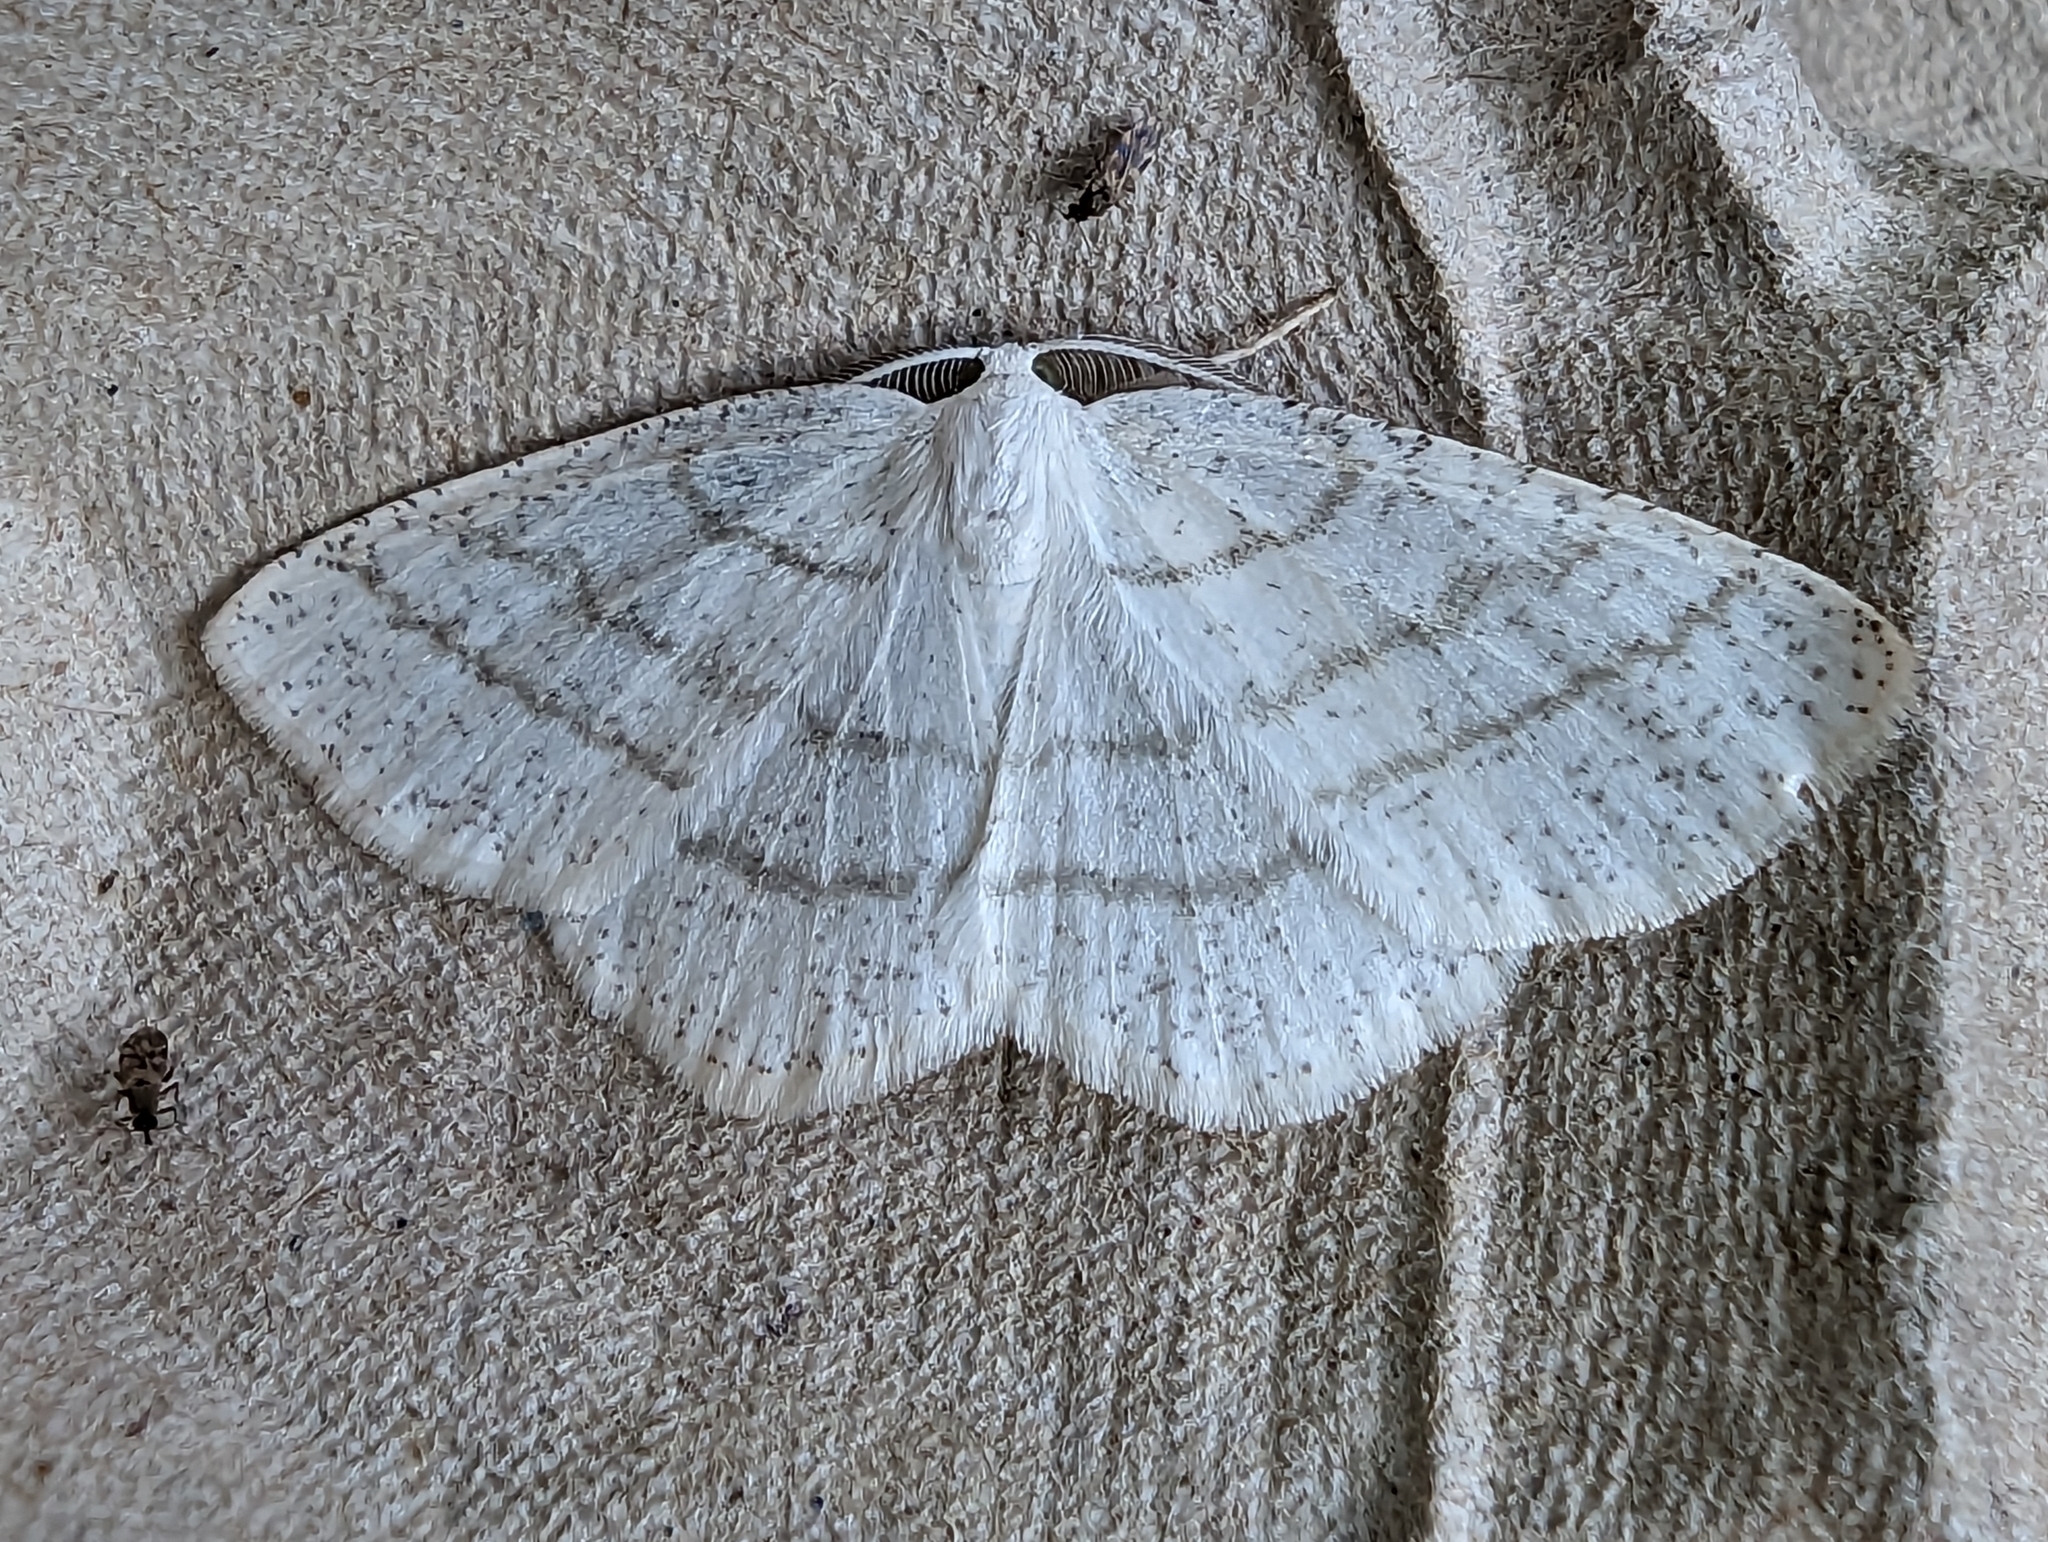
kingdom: Animalia
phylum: Arthropoda
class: Insecta
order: Lepidoptera
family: Geometridae
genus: Cabera
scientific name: Cabera pusaria
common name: Common white wave
